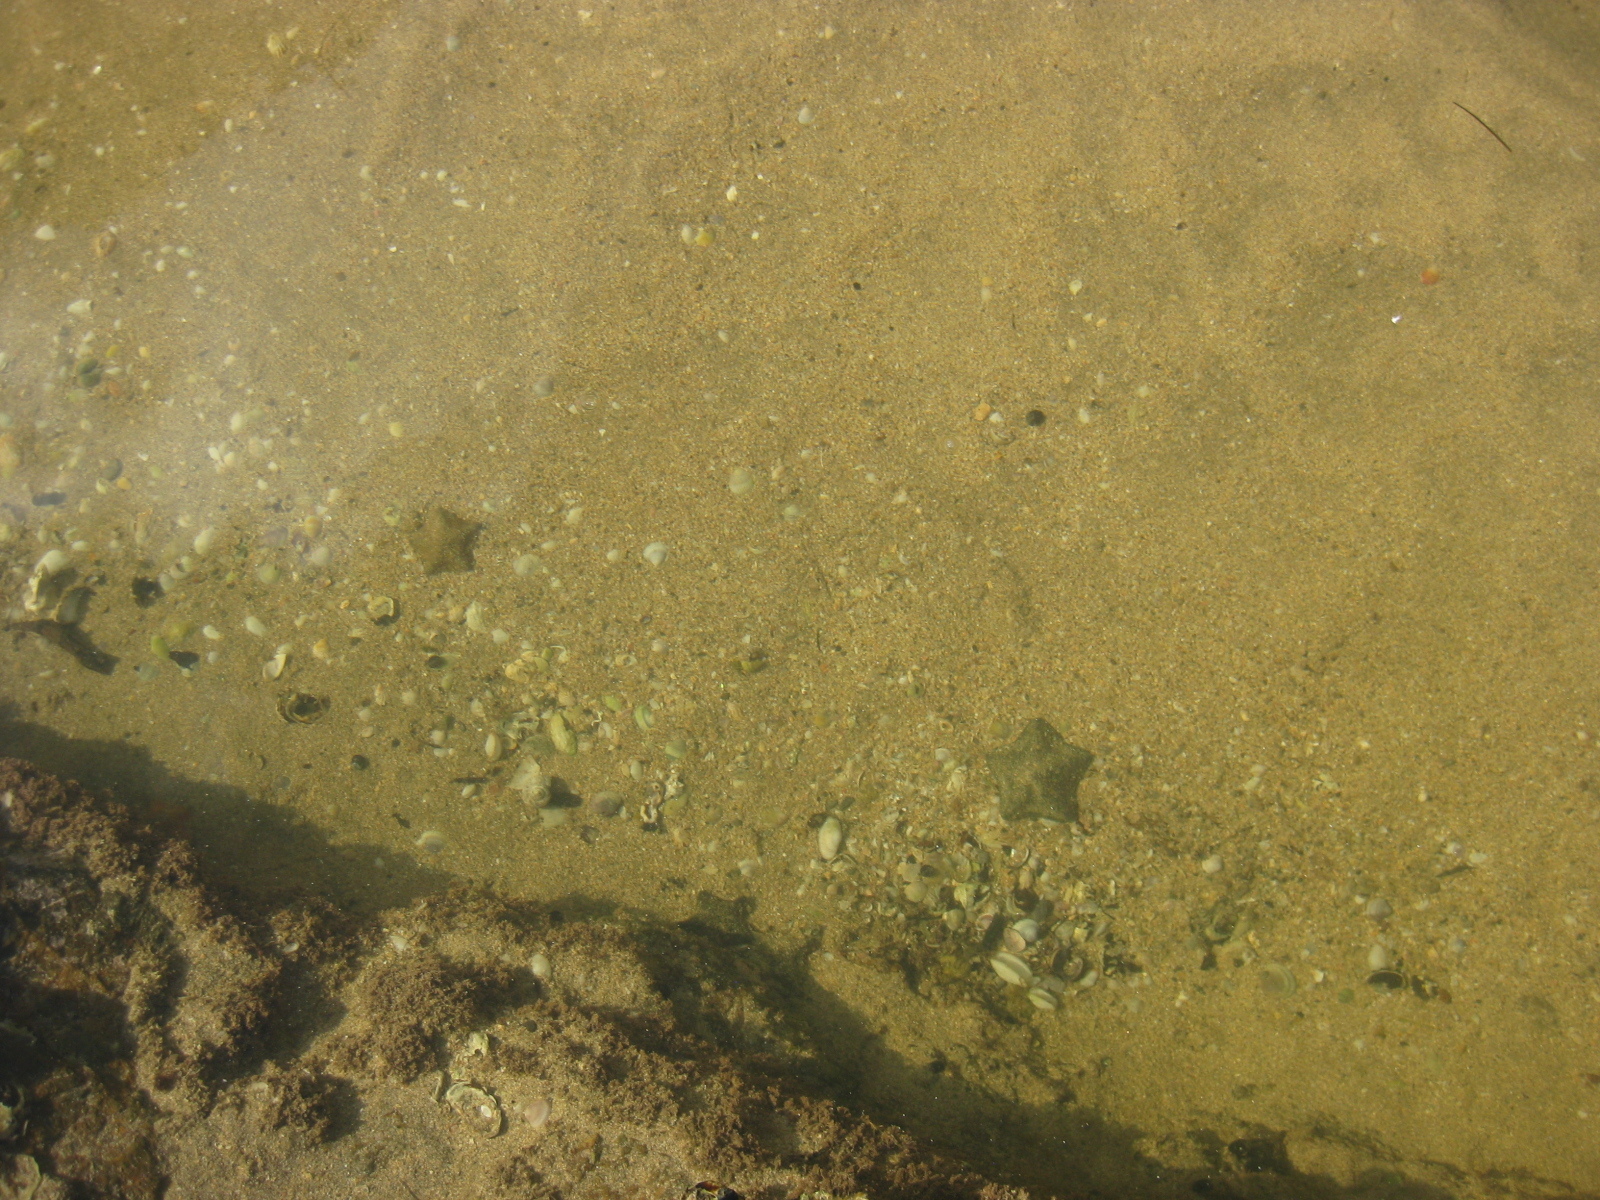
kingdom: Animalia
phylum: Echinodermata
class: Asteroidea
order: Valvatida
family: Asterinidae
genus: Patiriella
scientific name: Patiriella regularis
